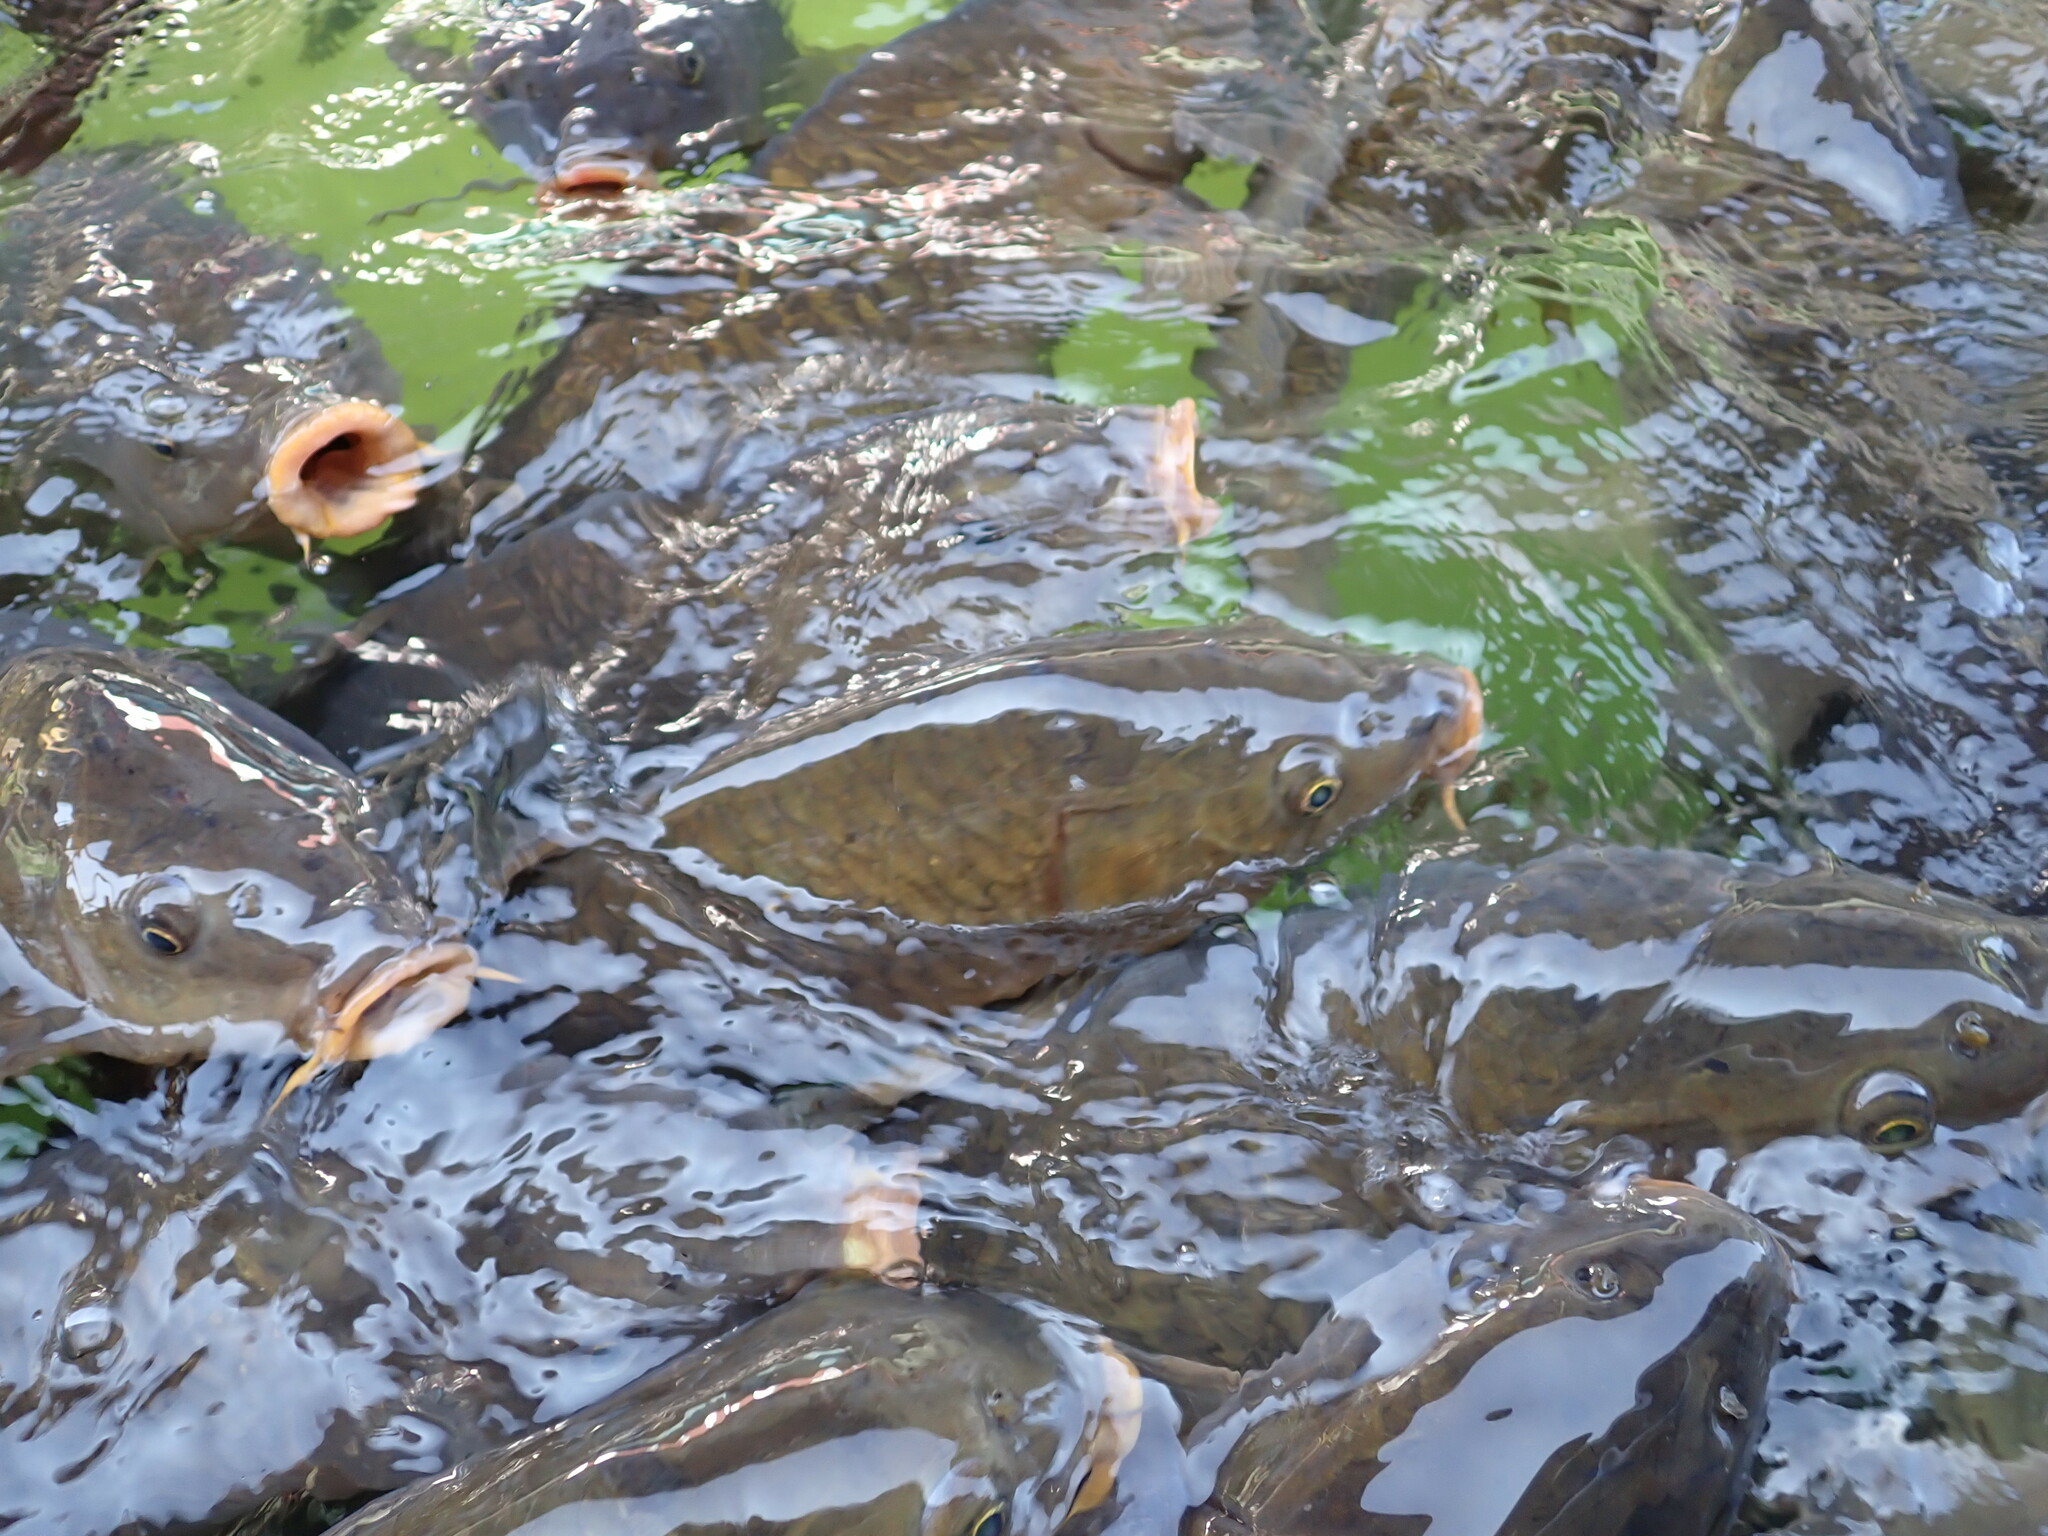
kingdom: Animalia
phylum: Chordata
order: Cypriniformes
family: Cyprinidae
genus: Cyprinus
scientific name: Cyprinus carpio
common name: Common carp
